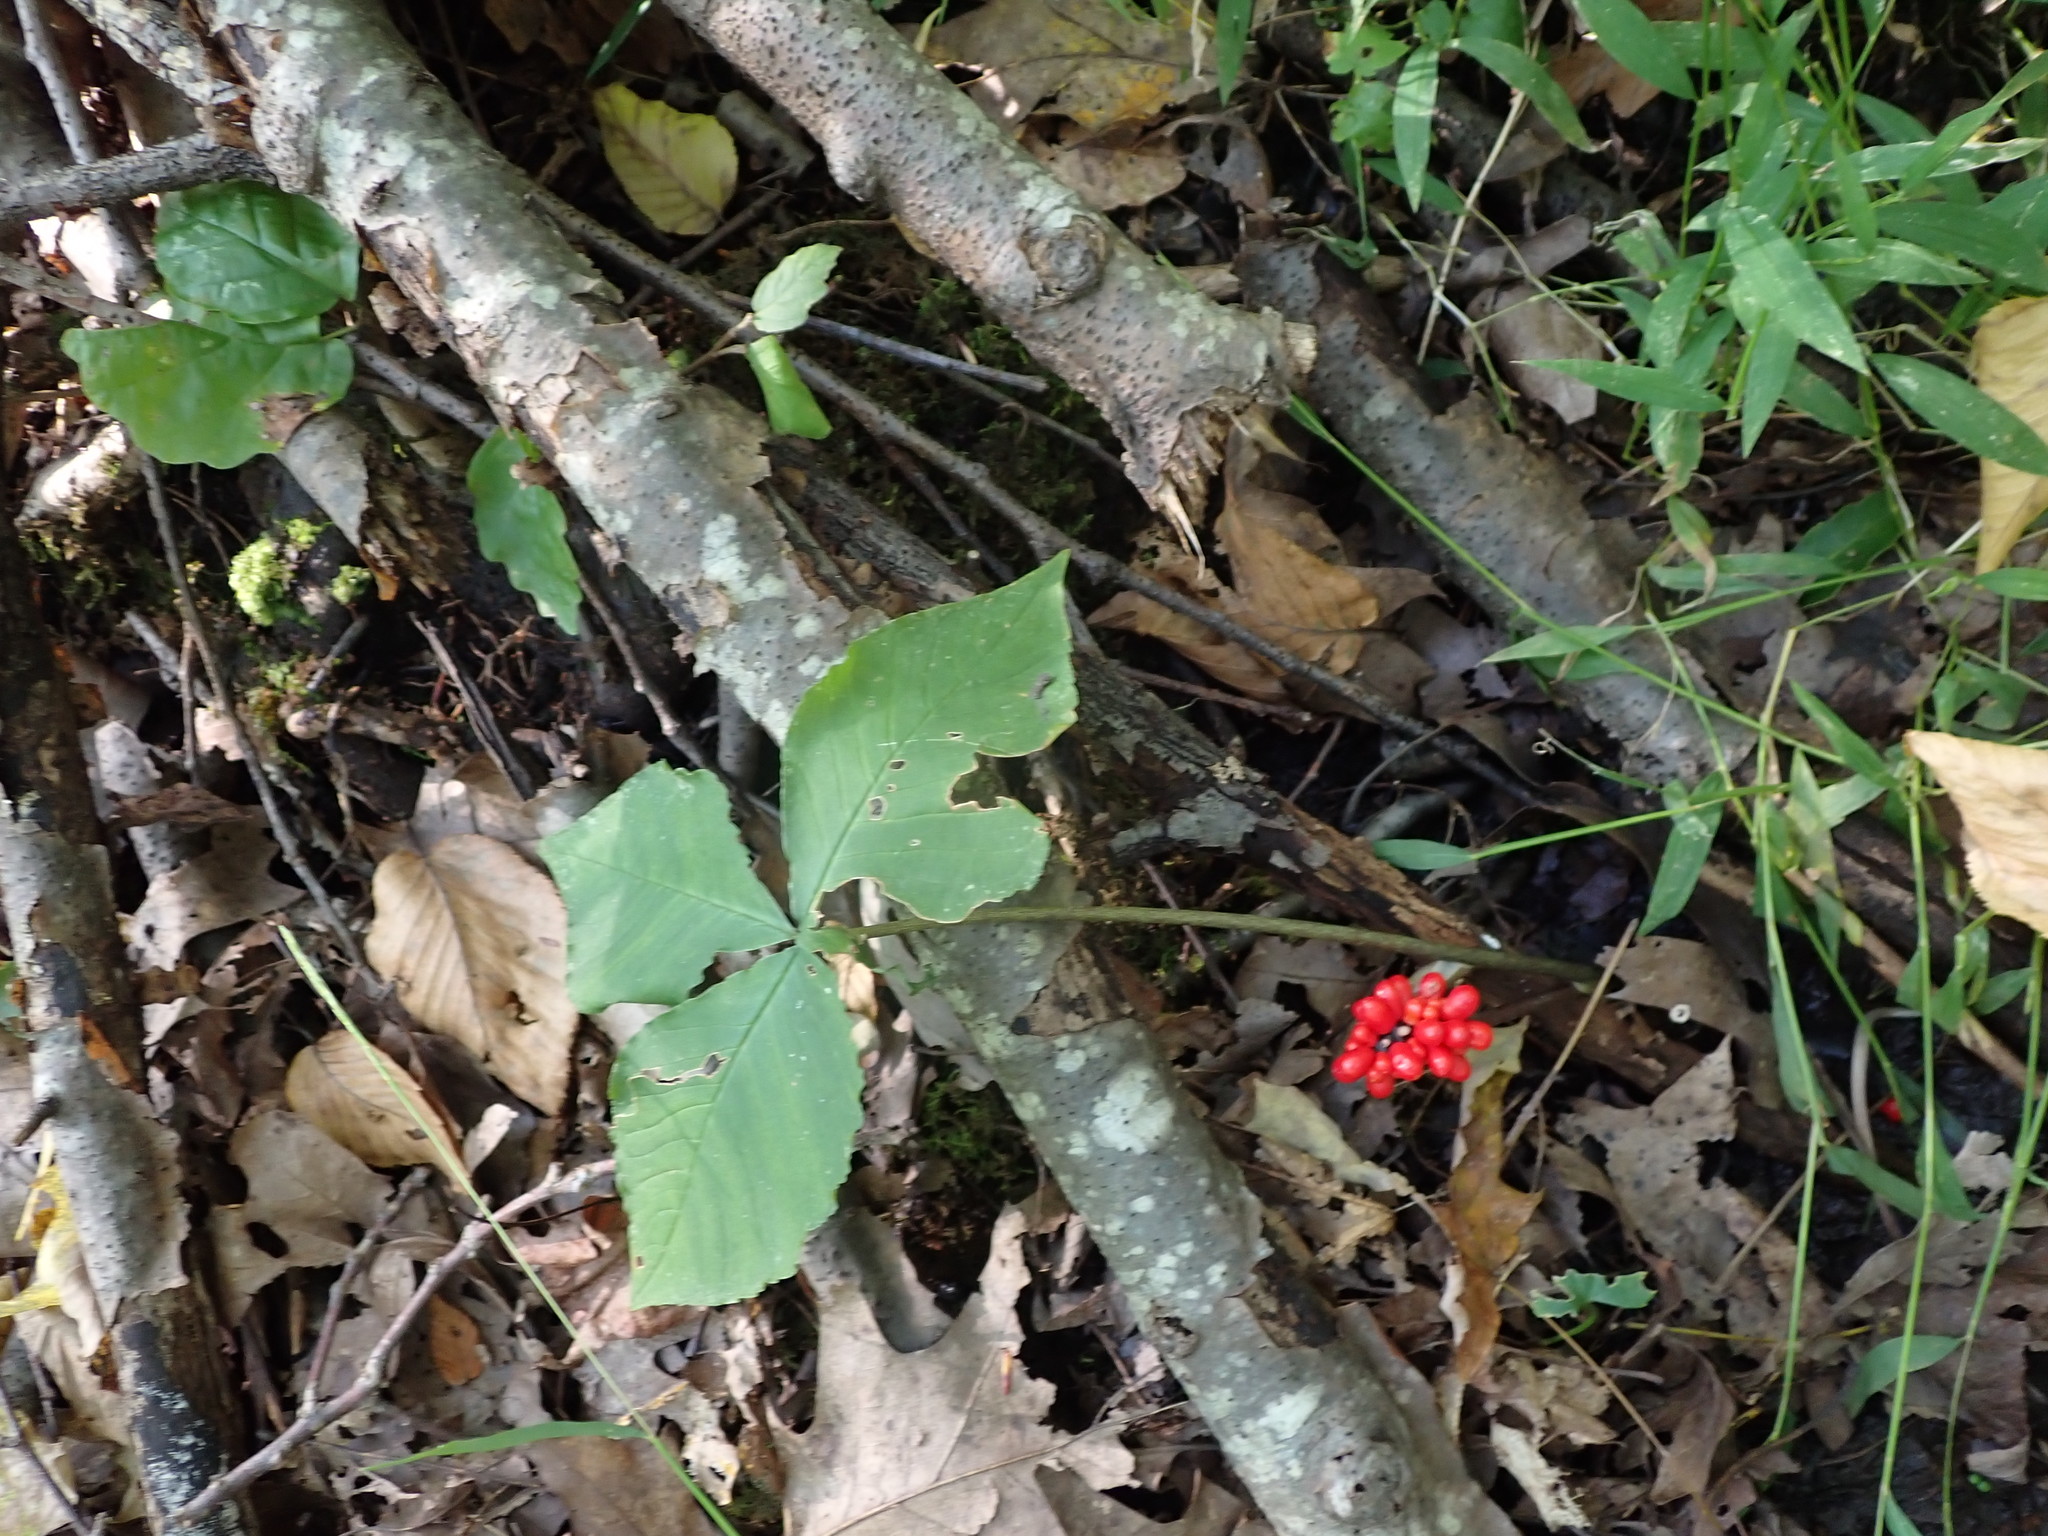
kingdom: Plantae
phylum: Tracheophyta
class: Liliopsida
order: Alismatales
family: Araceae
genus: Arisaema
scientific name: Arisaema triphyllum
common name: Jack-in-the-pulpit
